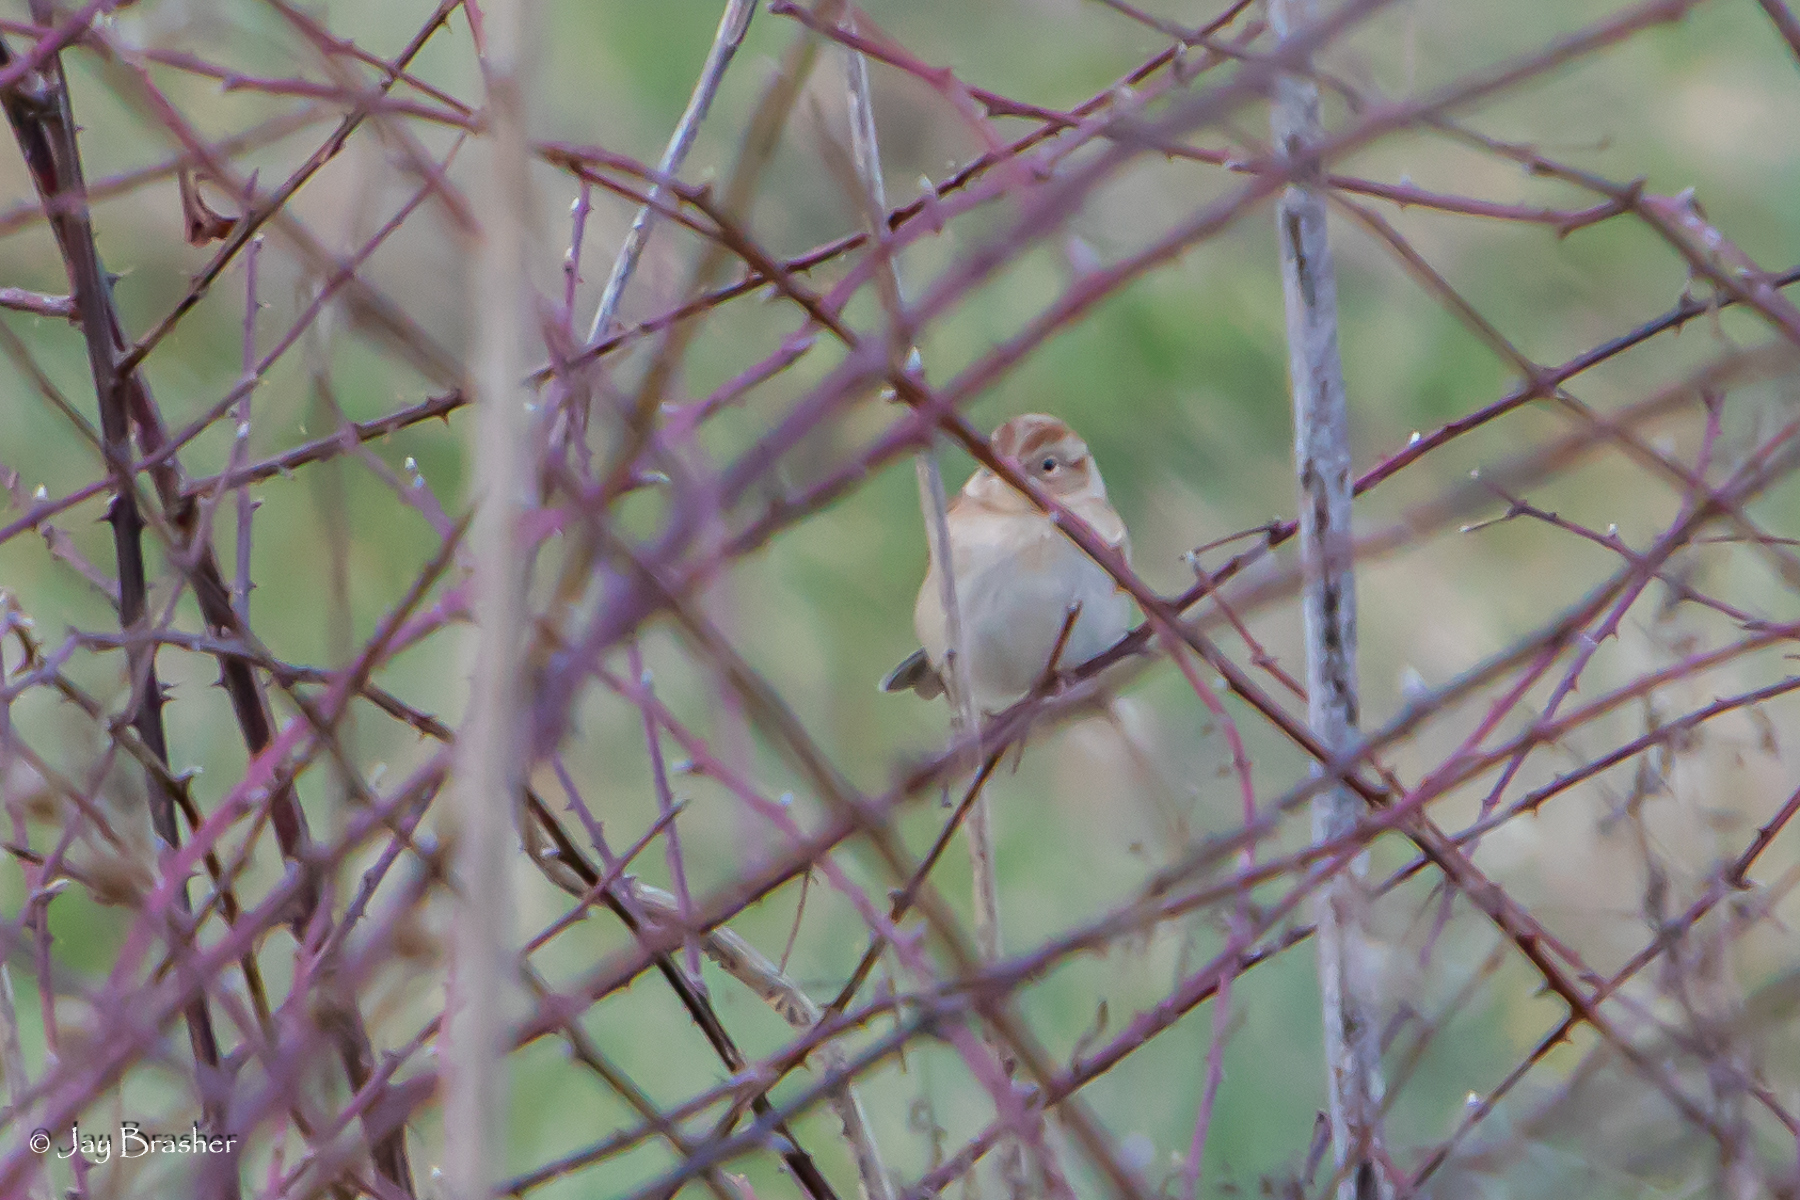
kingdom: Animalia
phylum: Chordata
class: Aves
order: Passeriformes
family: Passerellidae
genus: Spizella
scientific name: Spizella pusilla
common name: Field sparrow
